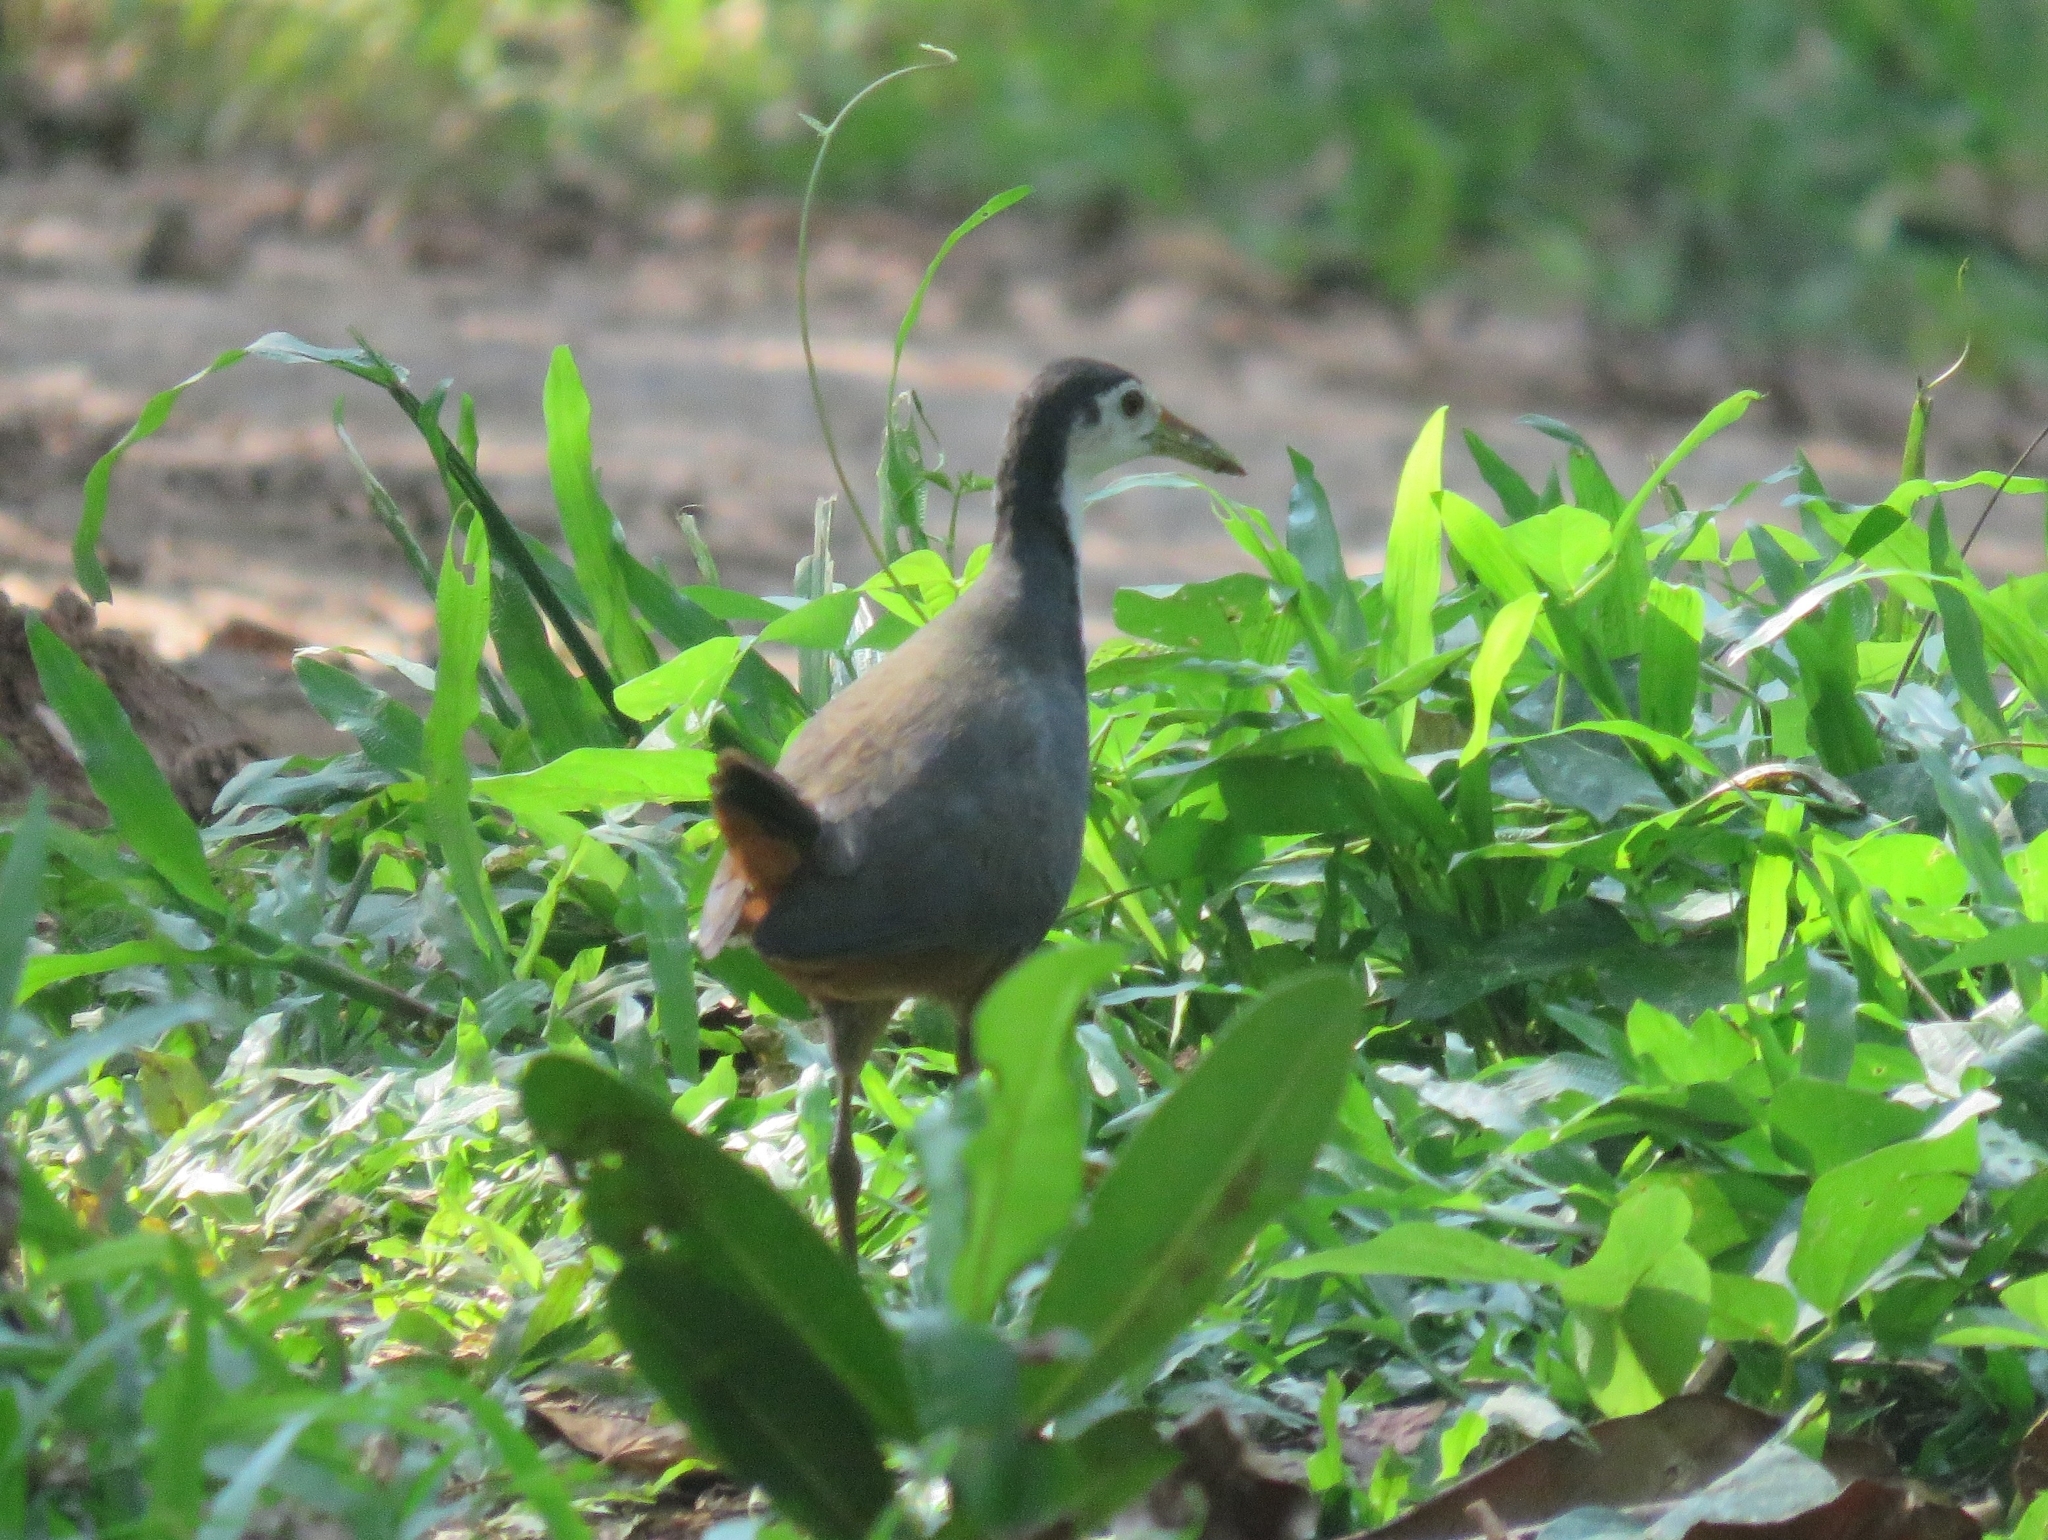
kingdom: Animalia
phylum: Chordata
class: Aves
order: Gruiformes
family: Rallidae
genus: Amaurornis
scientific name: Amaurornis phoenicurus
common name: White-breasted waterhen
